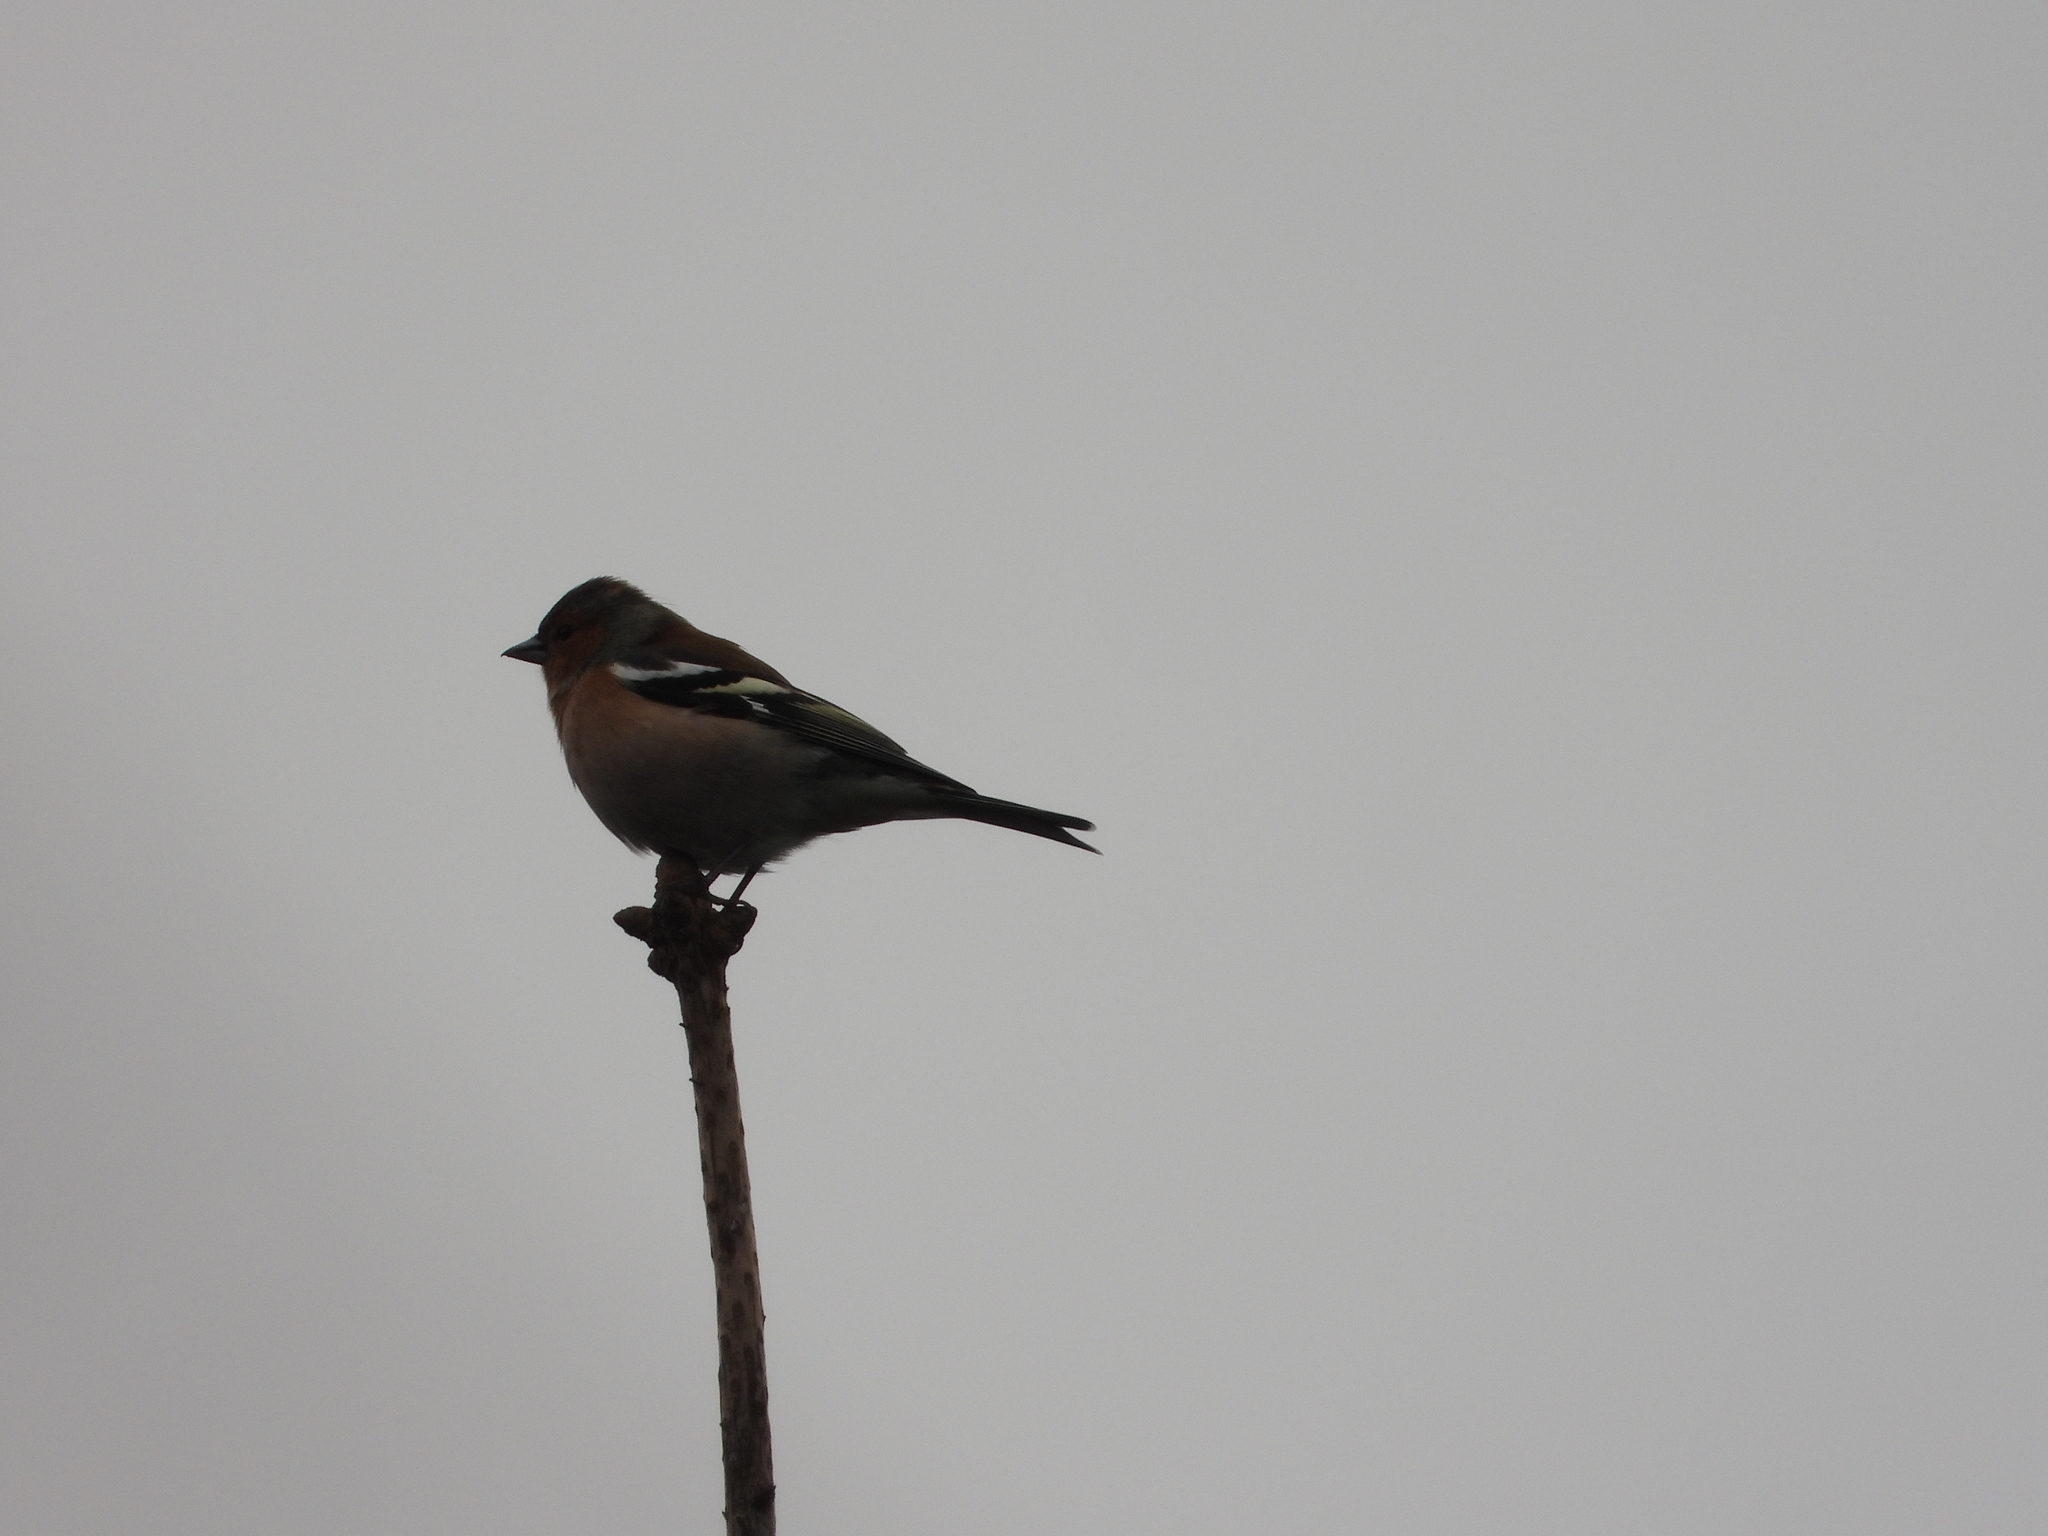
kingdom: Animalia
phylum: Chordata
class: Aves
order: Passeriformes
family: Fringillidae
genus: Fringilla
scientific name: Fringilla coelebs
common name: Common chaffinch
